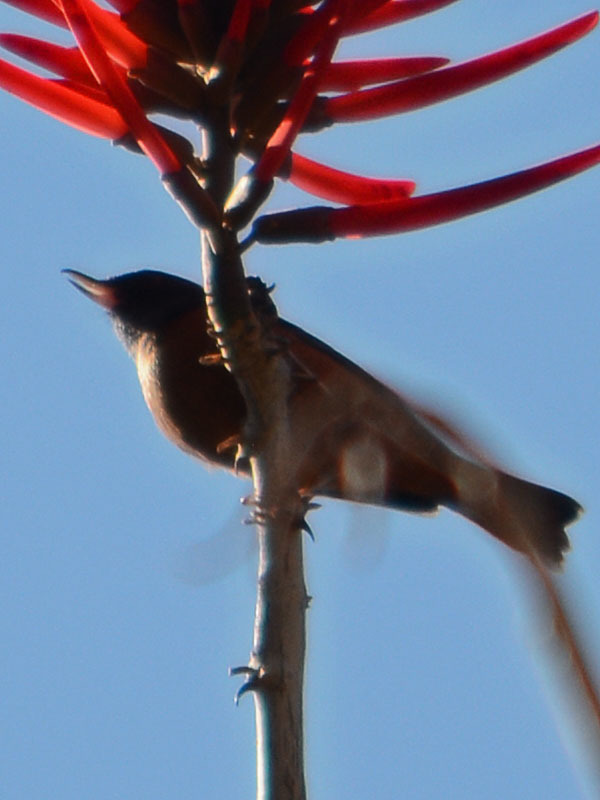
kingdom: Animalia
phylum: Chordata
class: Aves
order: Passeriformes
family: Thraupidae
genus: Diglossa
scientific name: Diglossa baritula
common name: Cinnamon-bellied flowerpiercer
